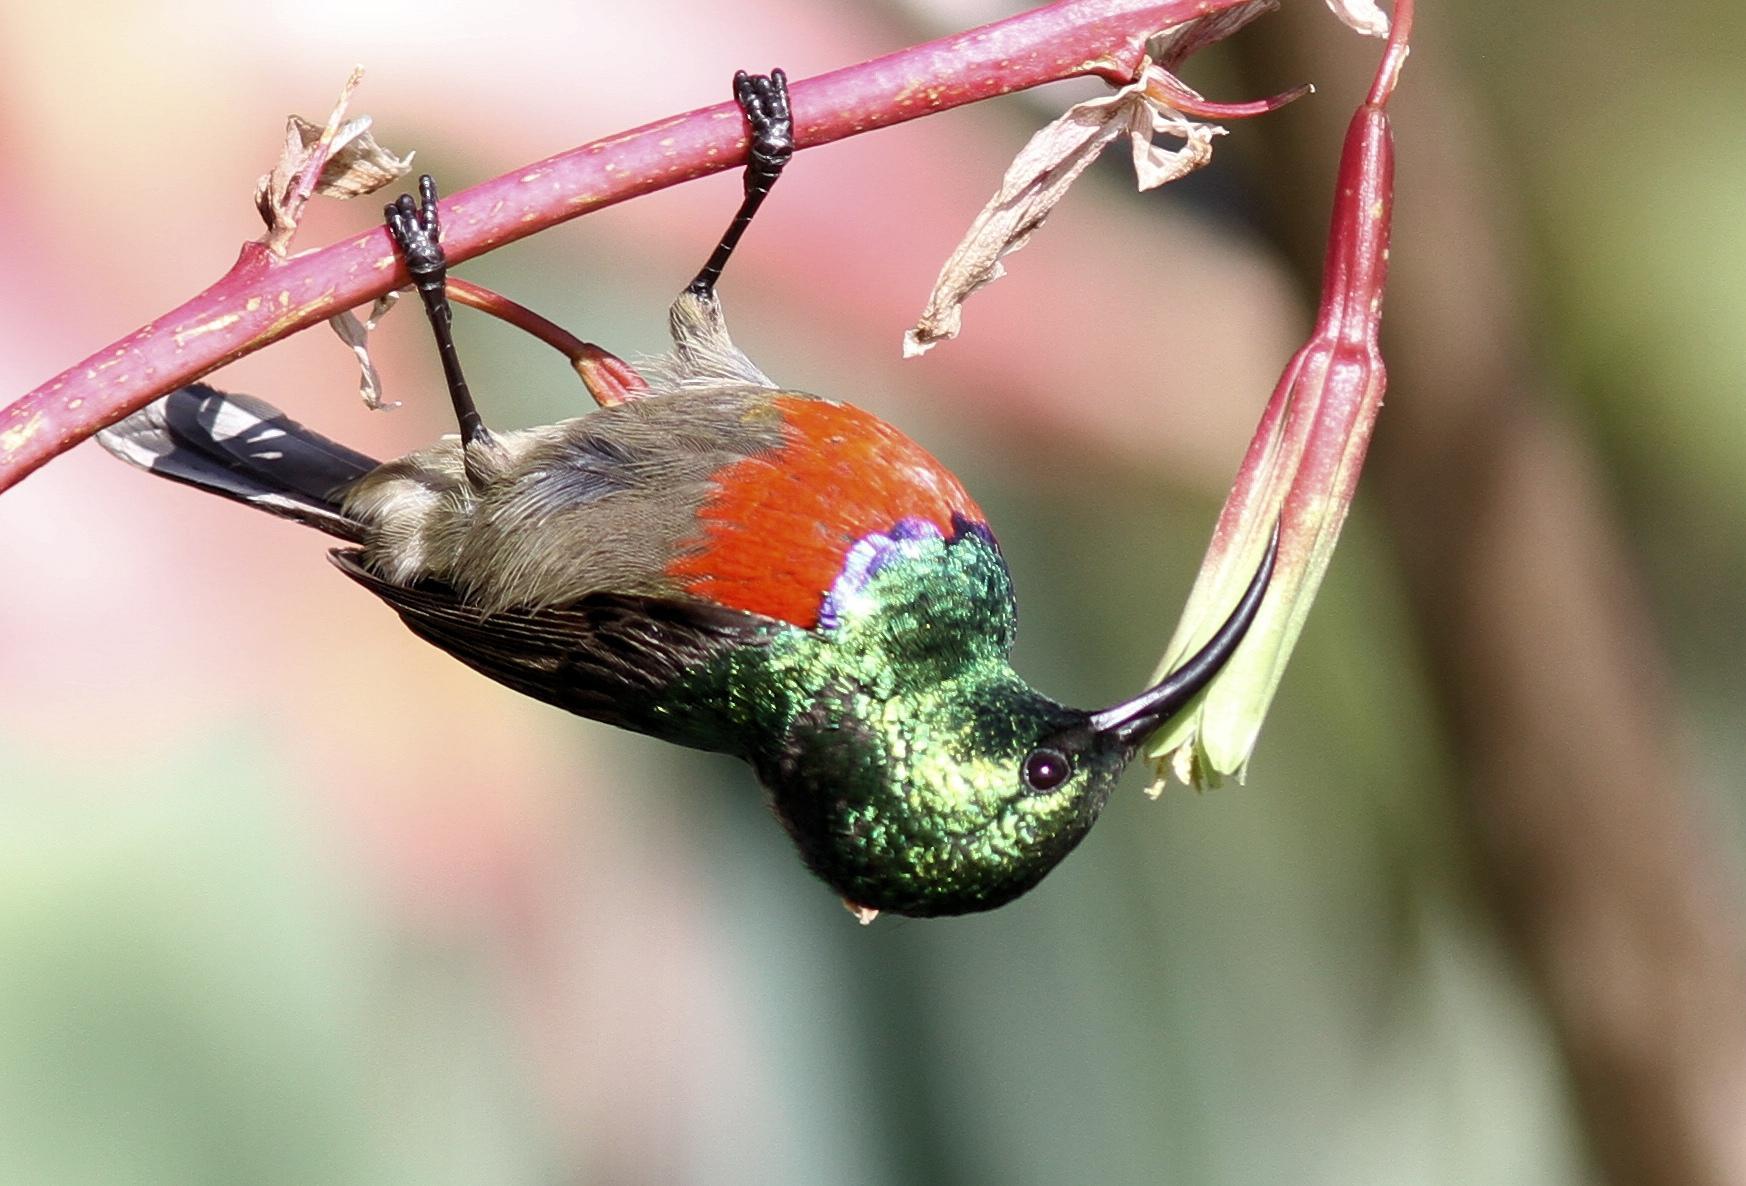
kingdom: Animalia
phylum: Chordata
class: Aves
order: Passeriformes
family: Nectariniidae
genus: Cinnyris
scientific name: Cinnyris afer
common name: Greater double-collared sunbird
